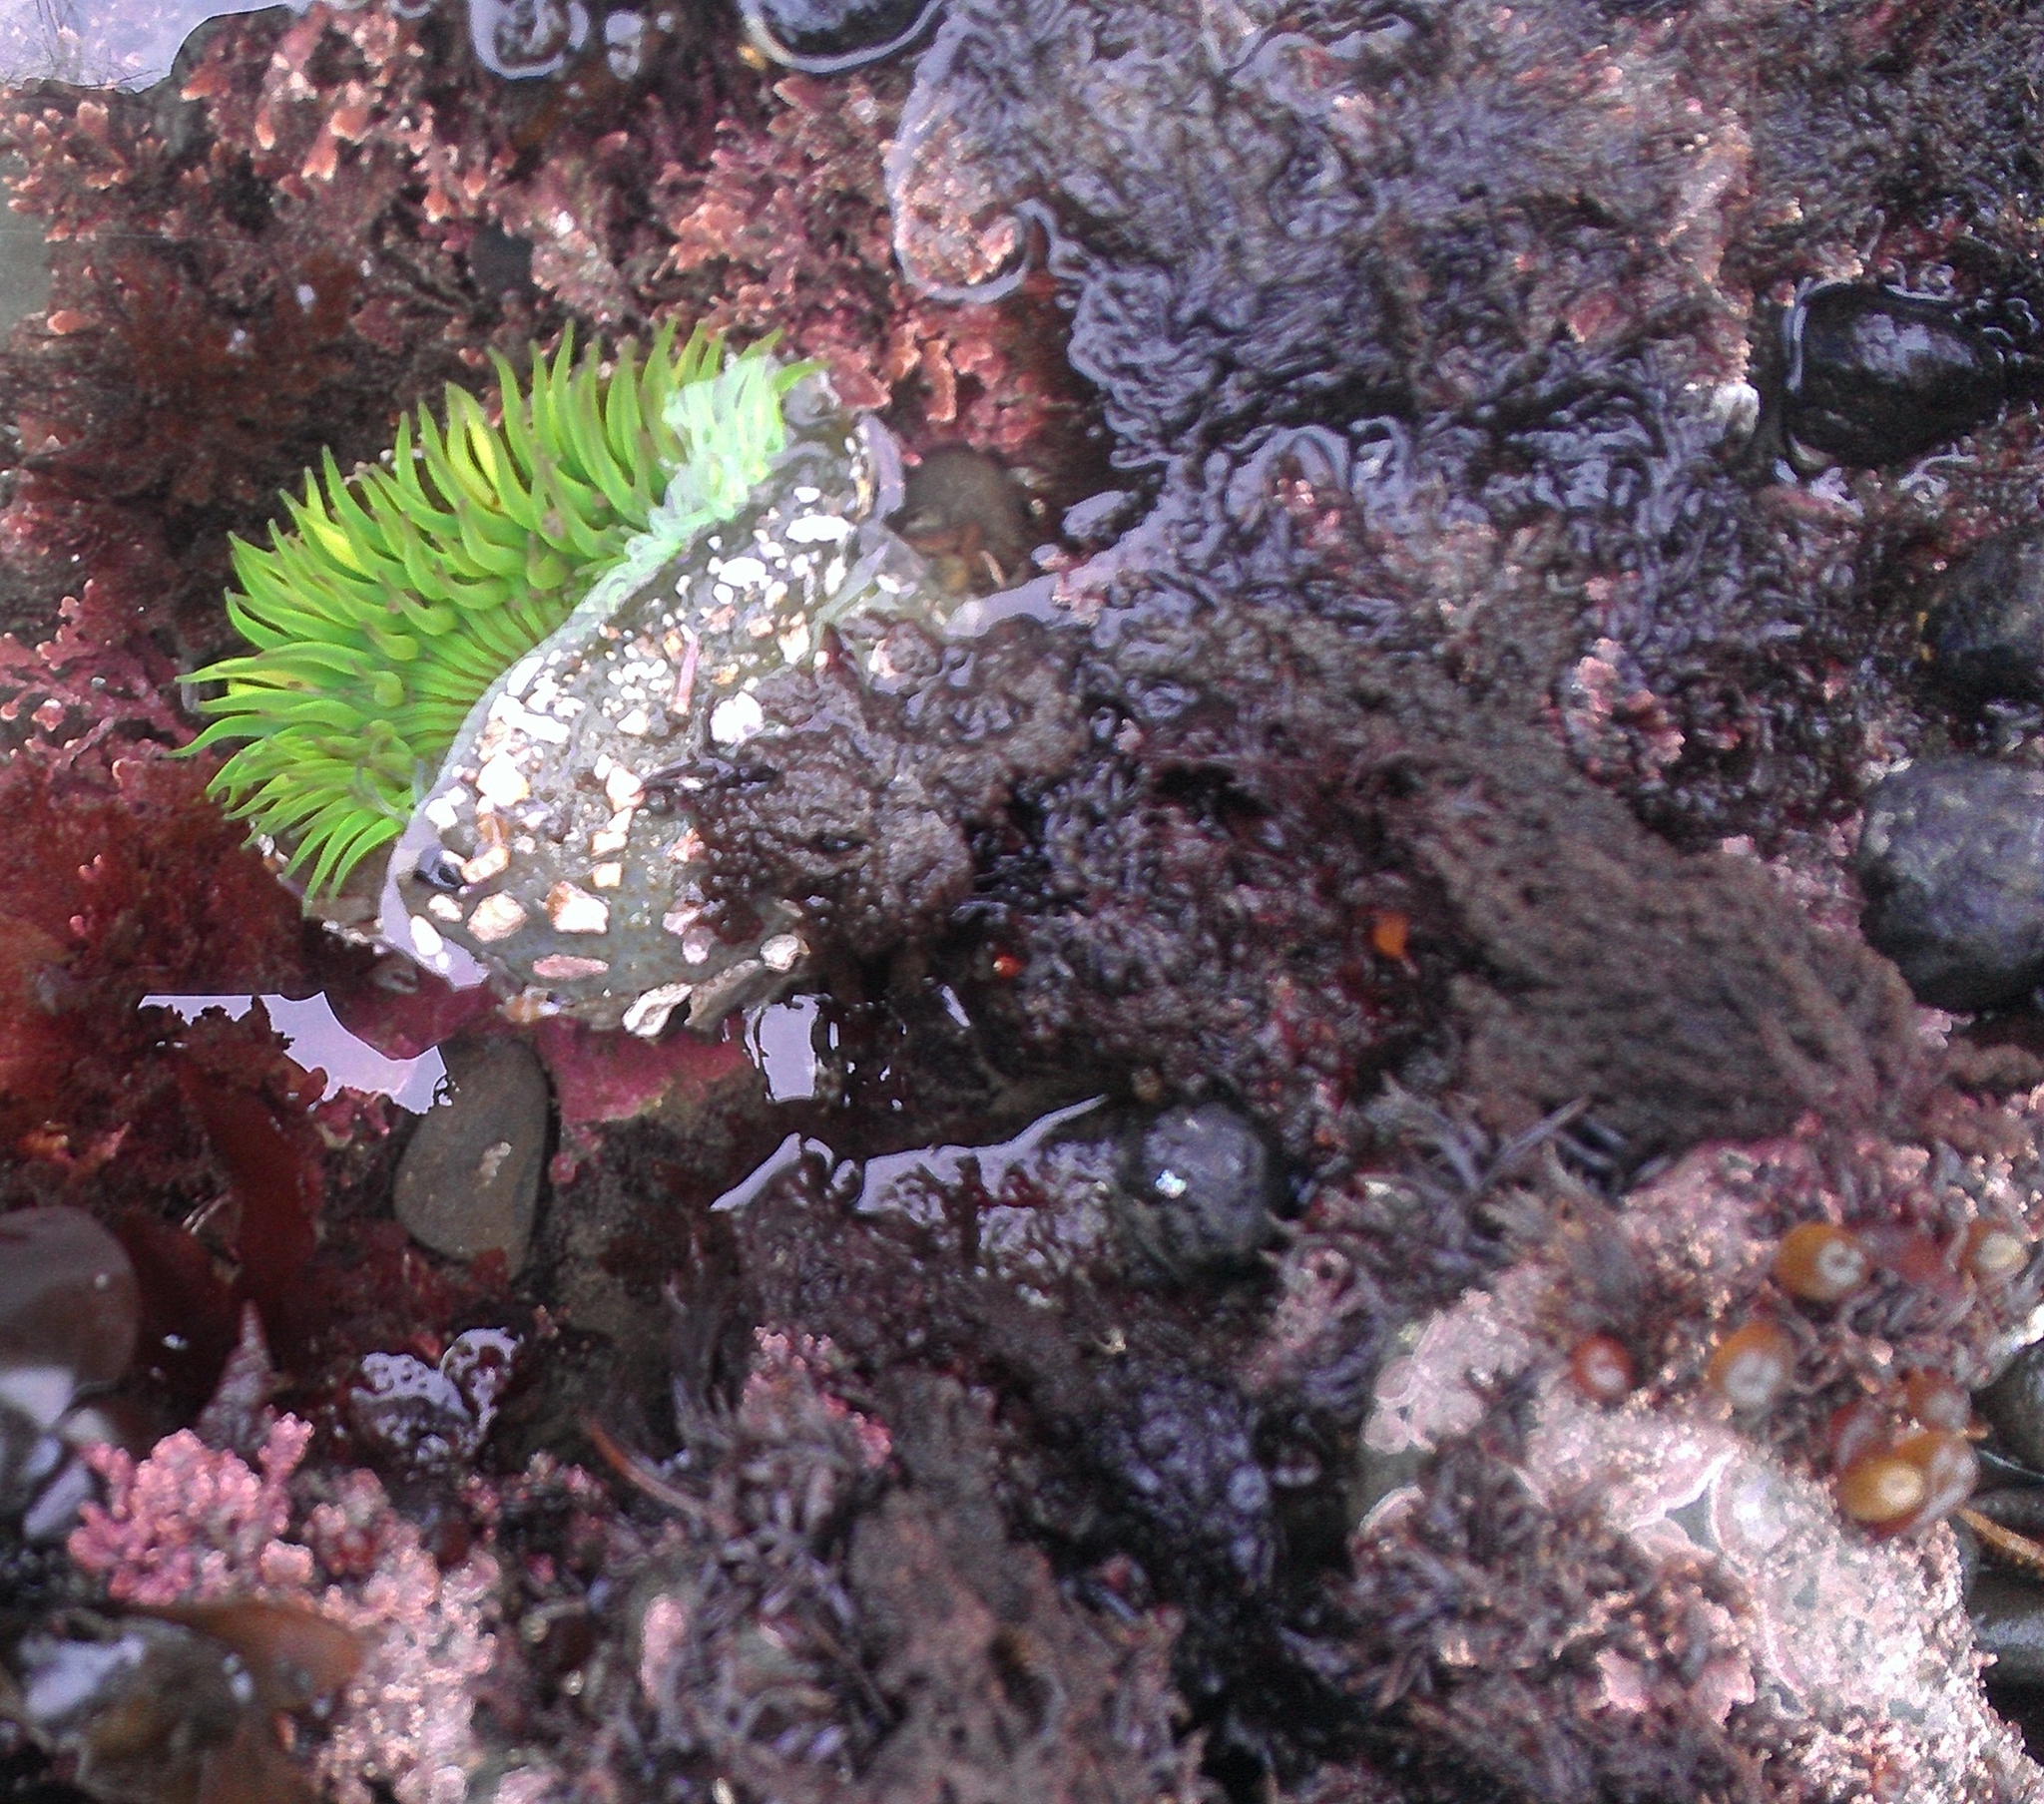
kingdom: Animalia
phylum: Cnidaria
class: Anthozoa
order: Actiniaria
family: Actiniidae
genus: Anthopleura
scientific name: Anthopleura sola
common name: Sun anemone
